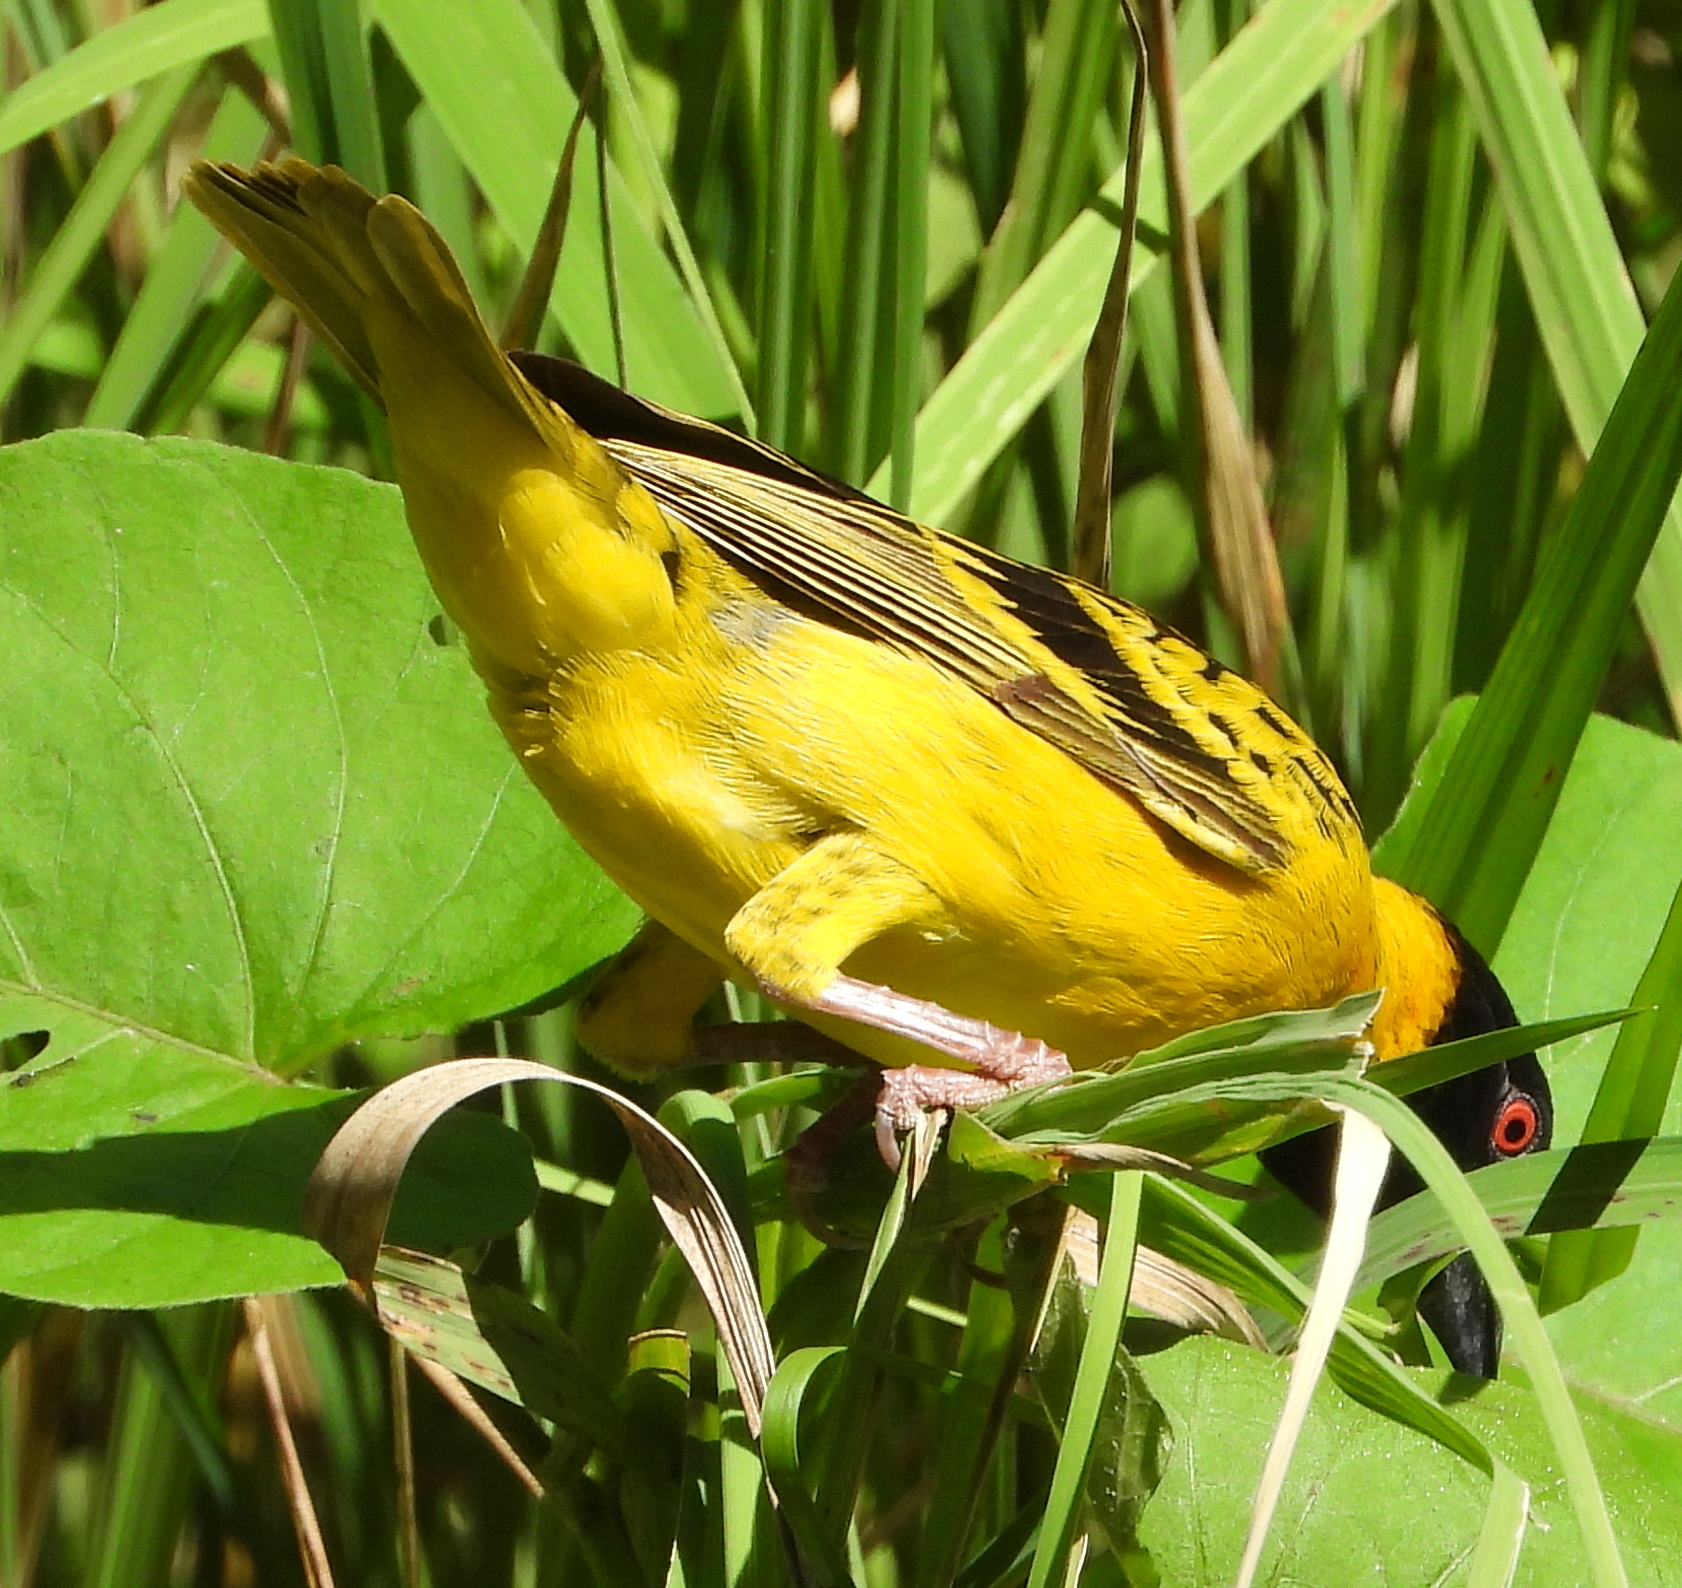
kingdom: Animalia
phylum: Chordata
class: Aves
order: Passeriformes
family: Ploceidae
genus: Ploceus
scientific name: Ploceus cucullatus
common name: Village weaver
